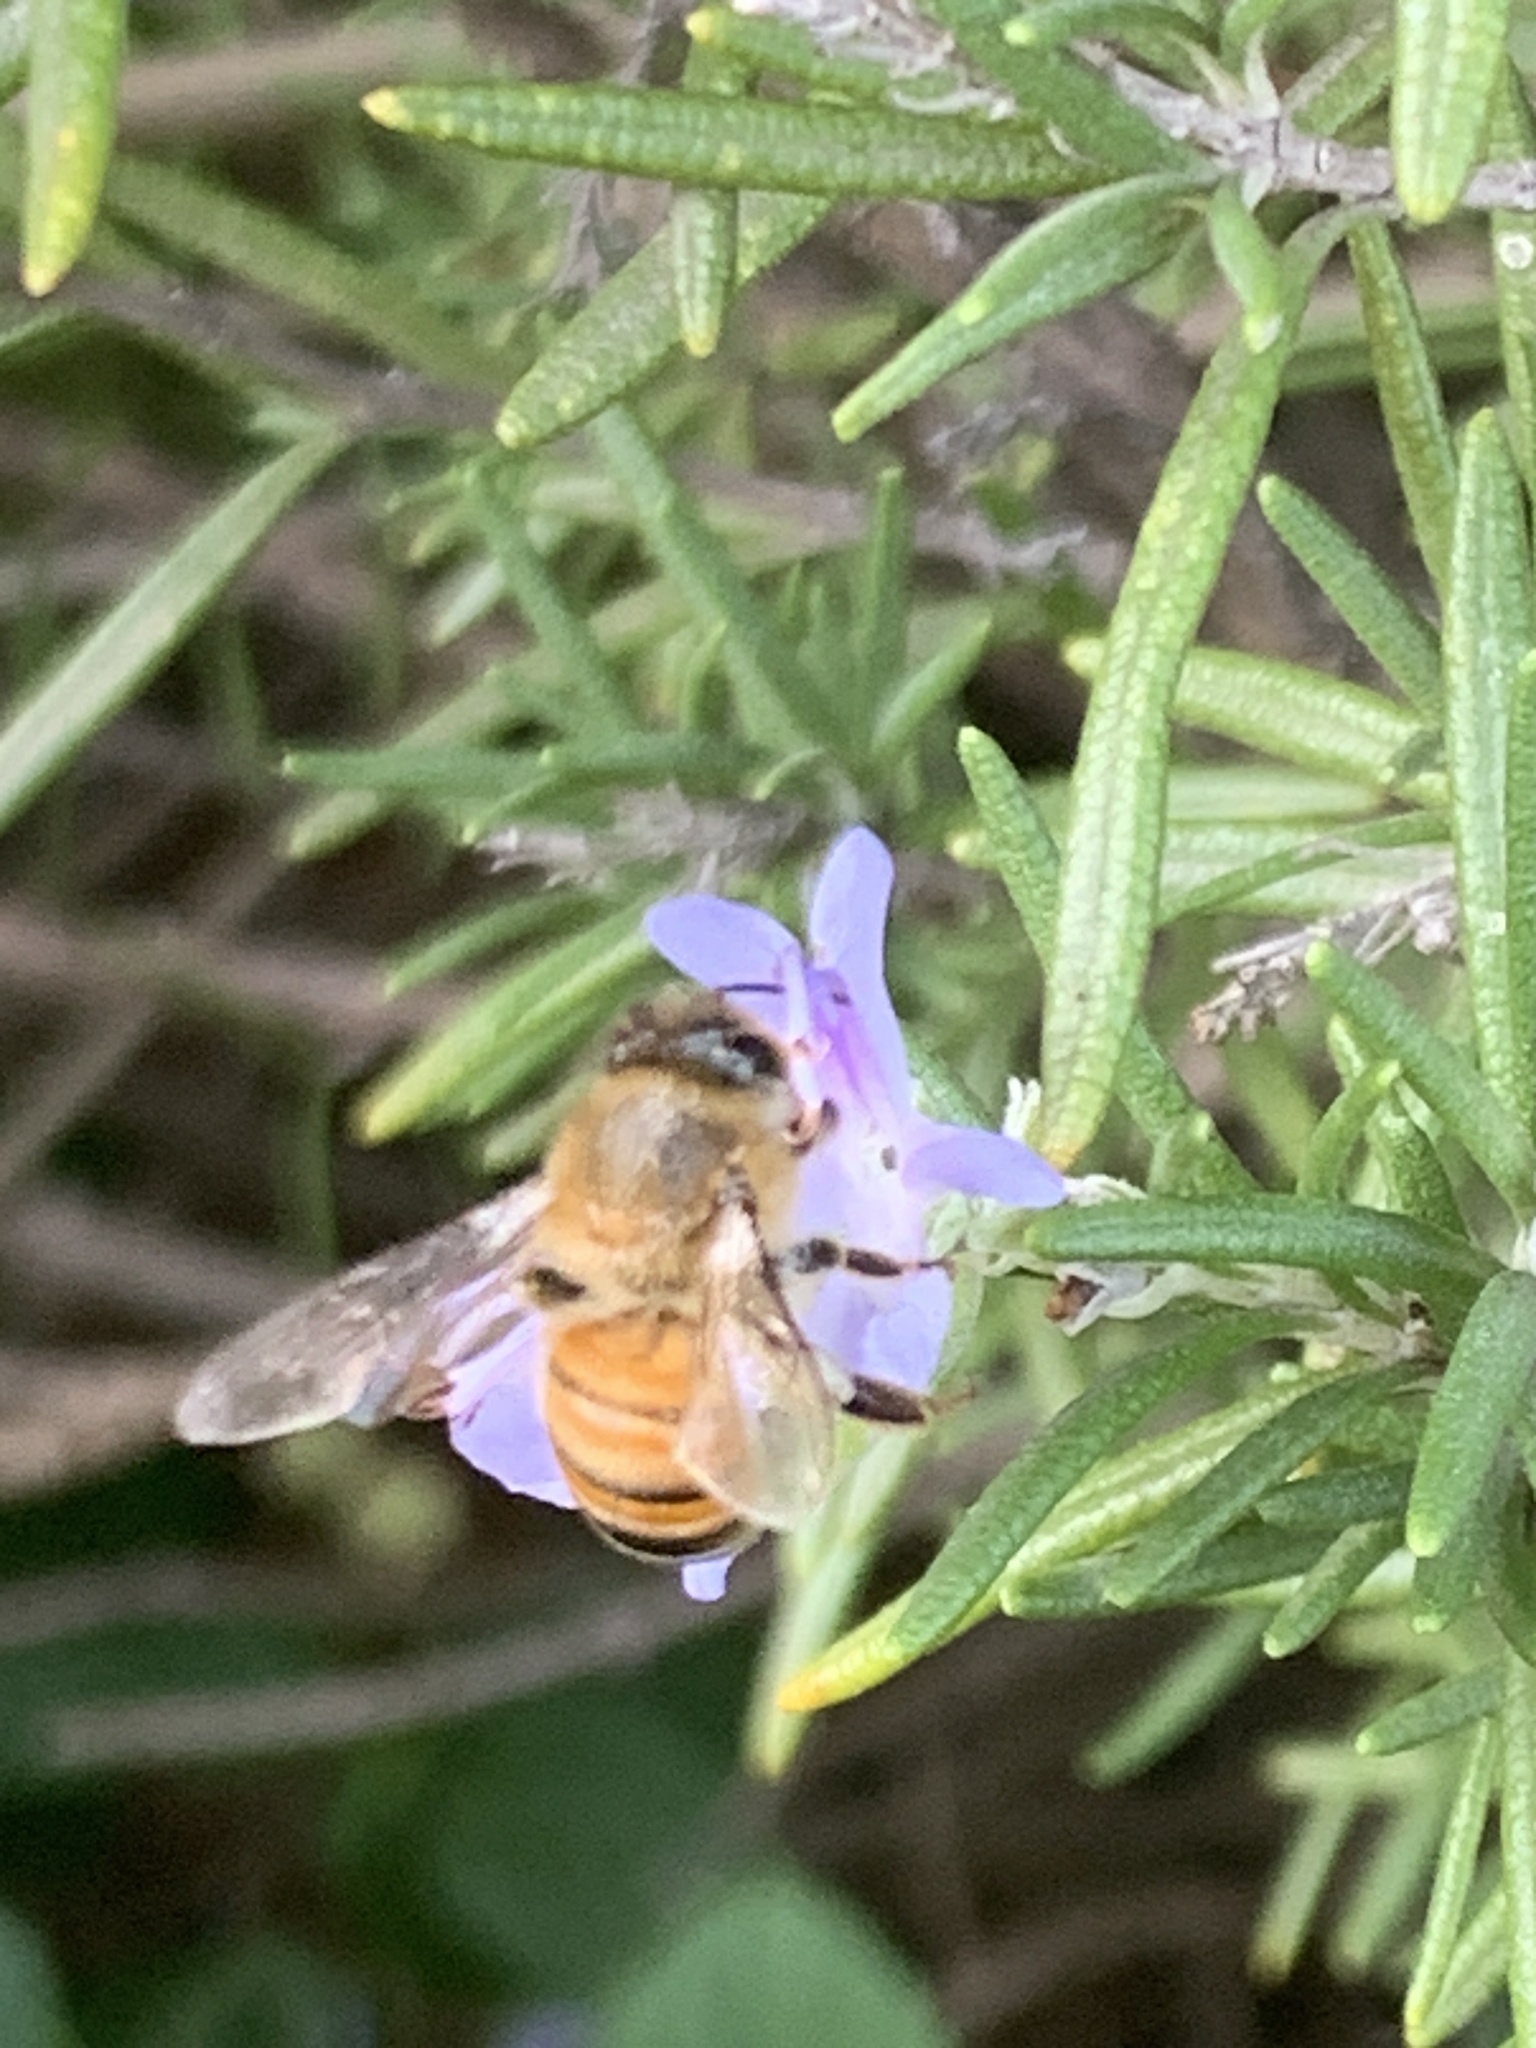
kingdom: Animalia
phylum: Arthropoda
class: Insecta
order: Hymenoptera
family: Apidae
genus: Apis
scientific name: Apis mellifera
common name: Honey bee
